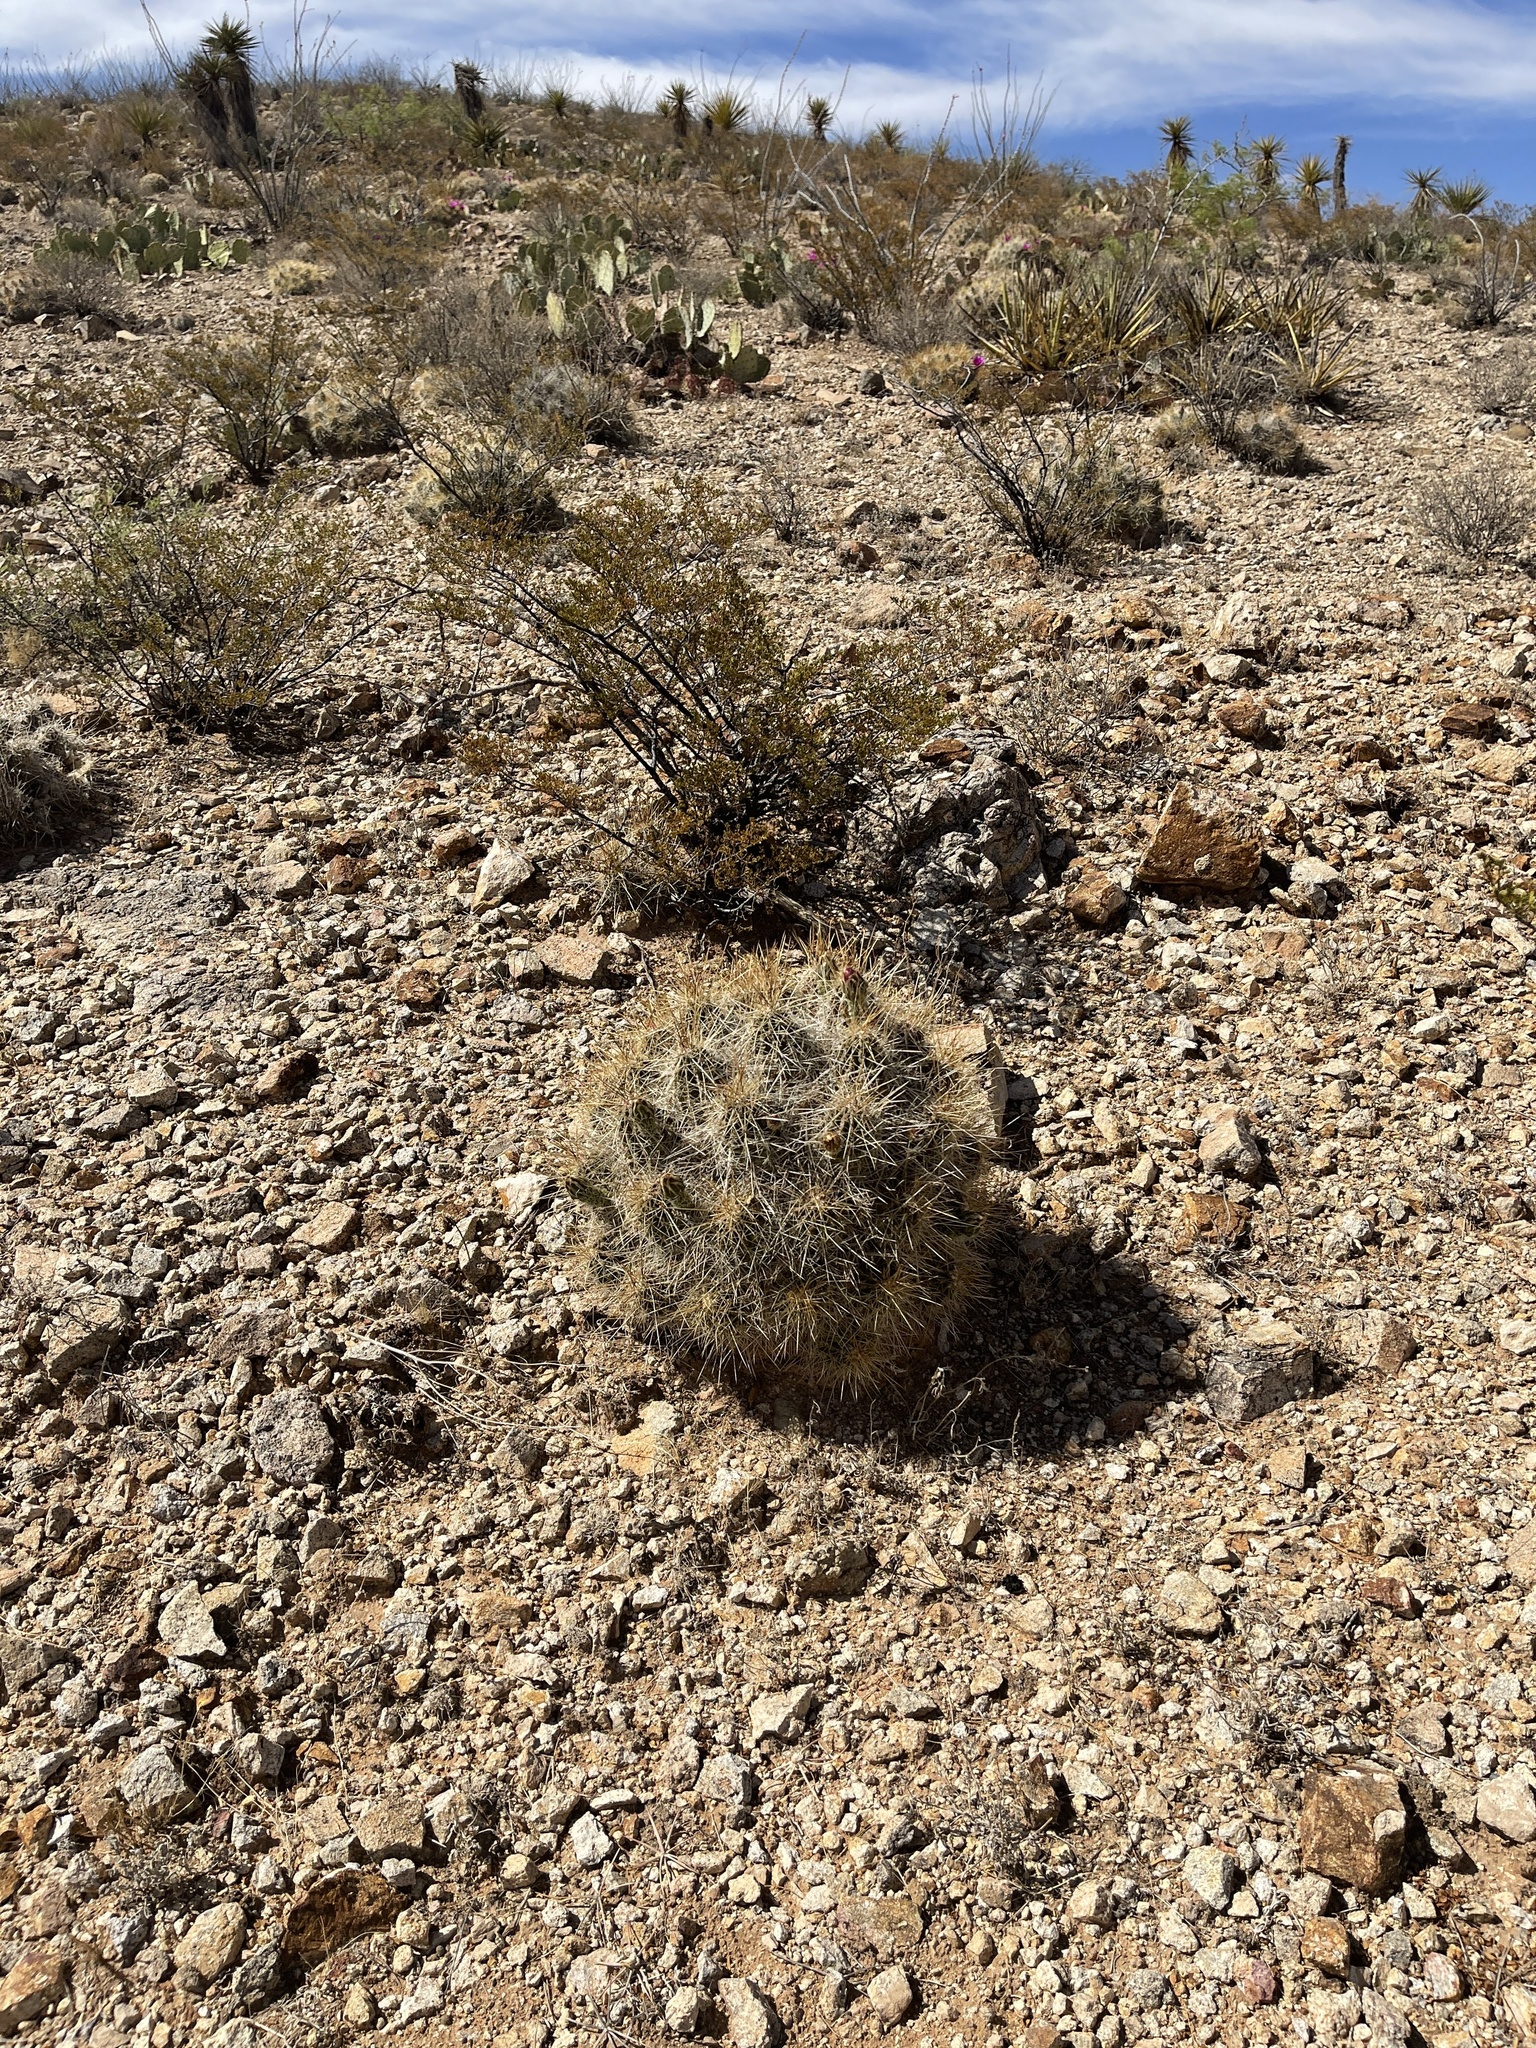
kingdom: Plantae
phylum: Tracheophyta
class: Magnoliopsida
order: Caryophyllales
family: Cactaceae
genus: Echinocereus
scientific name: Echinocereus stramineus
